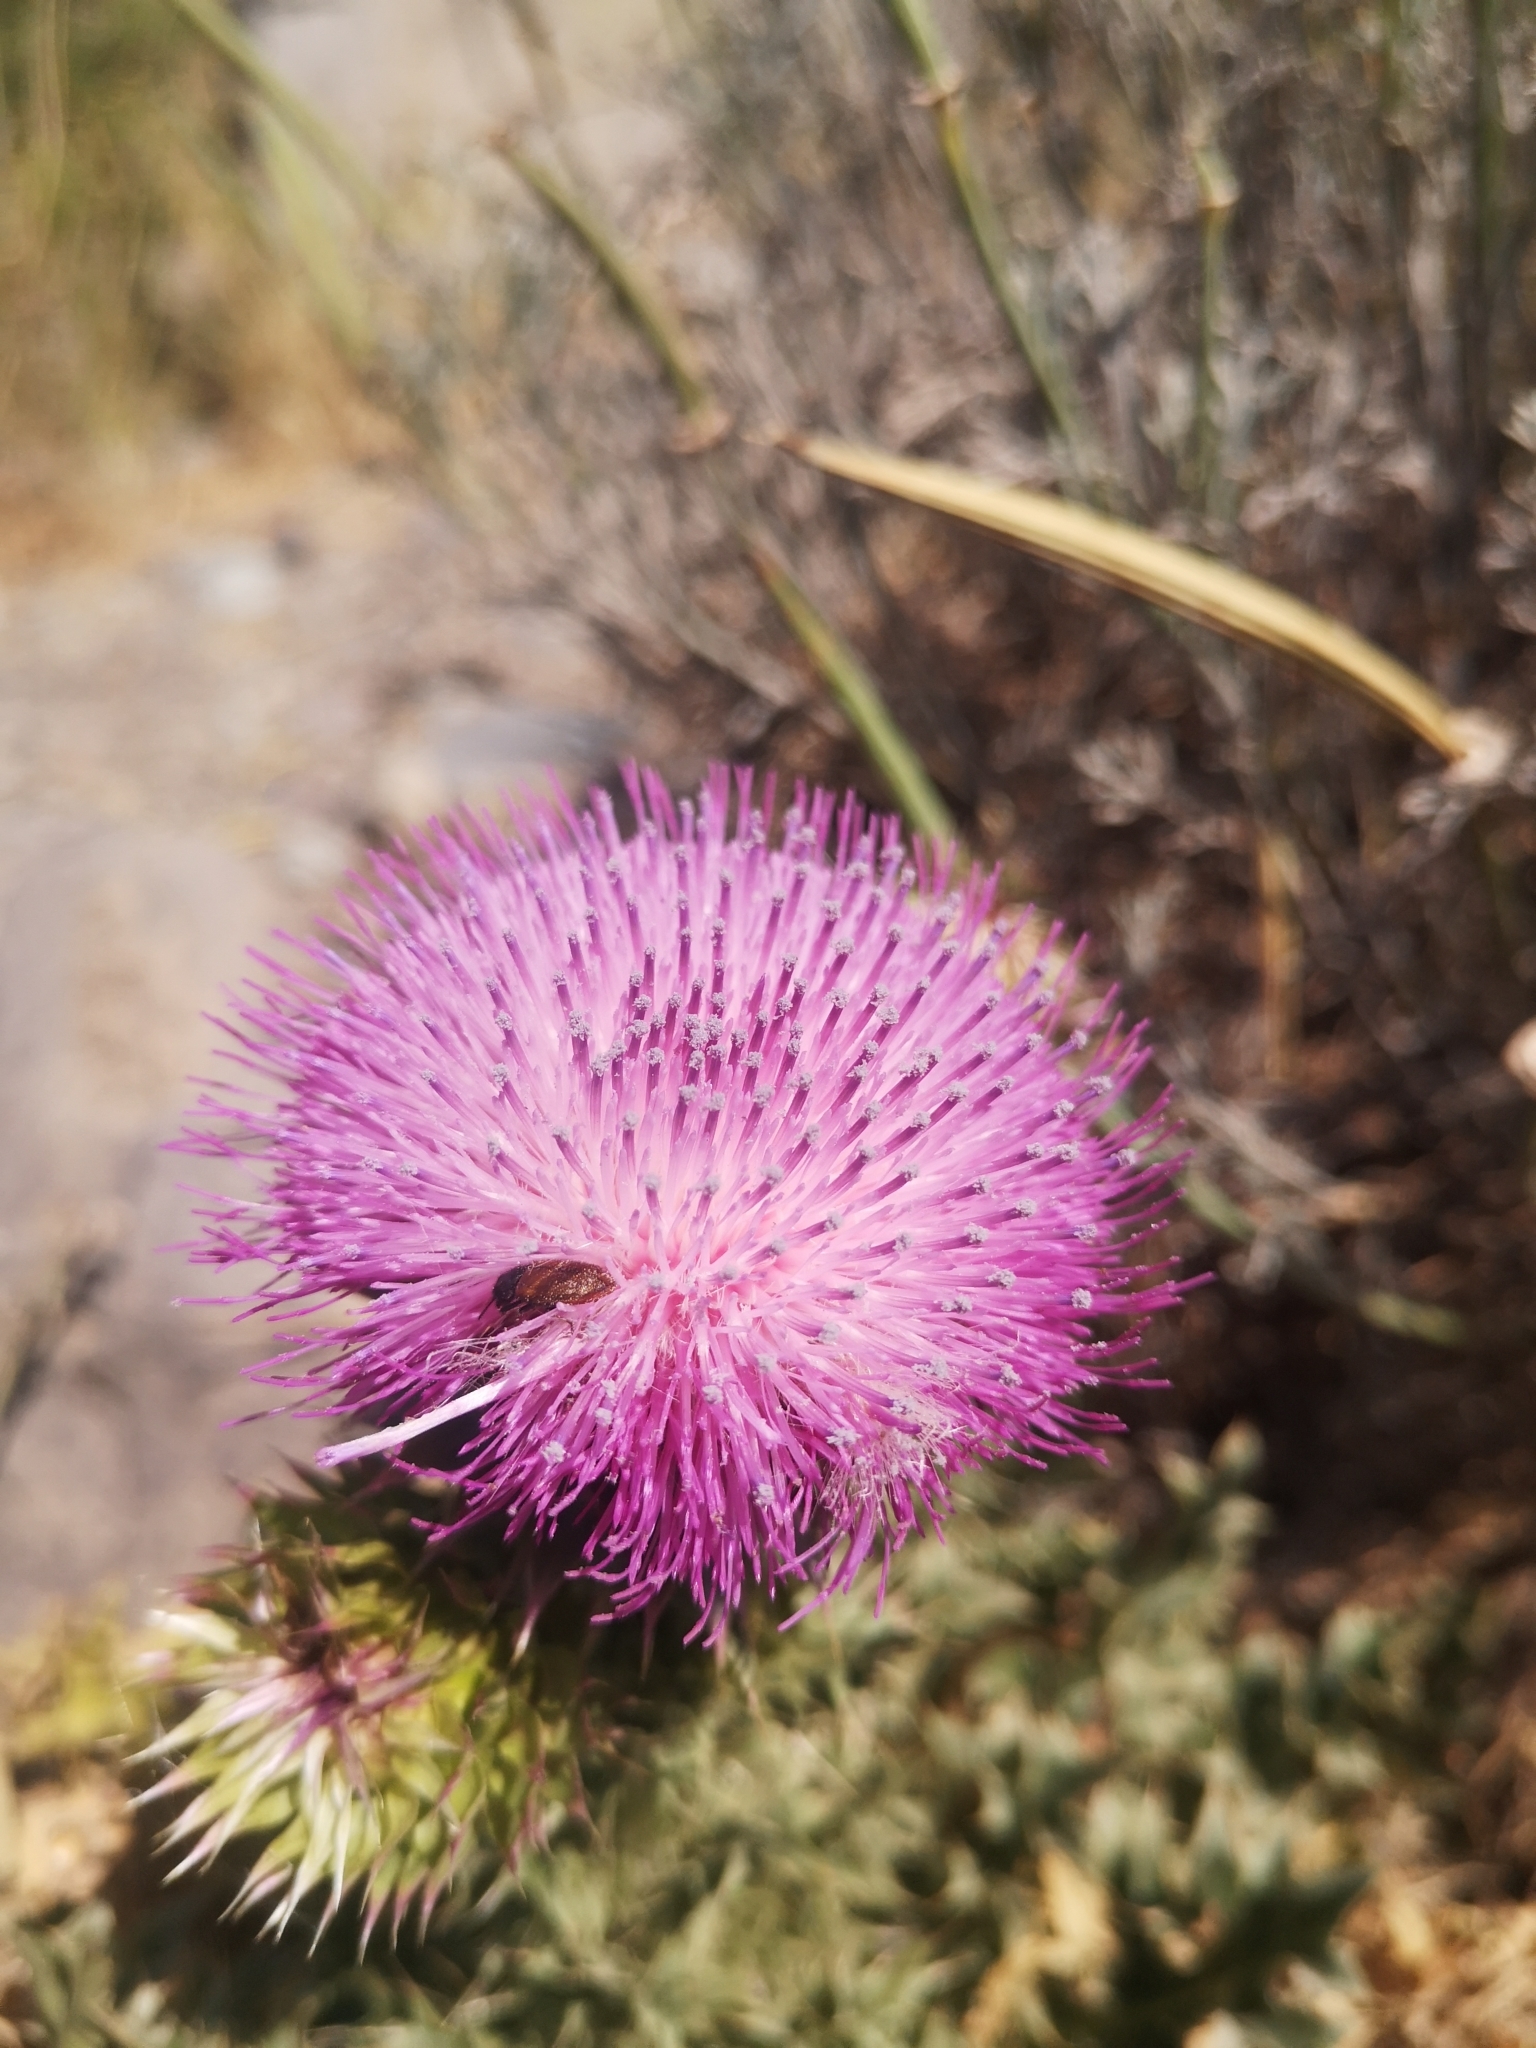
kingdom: Plantae
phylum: Tracheophyta
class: Magnoliopsida
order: Asterales
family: Asteraceae
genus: Carduus
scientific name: Carduus nutans
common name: Musk thistle
